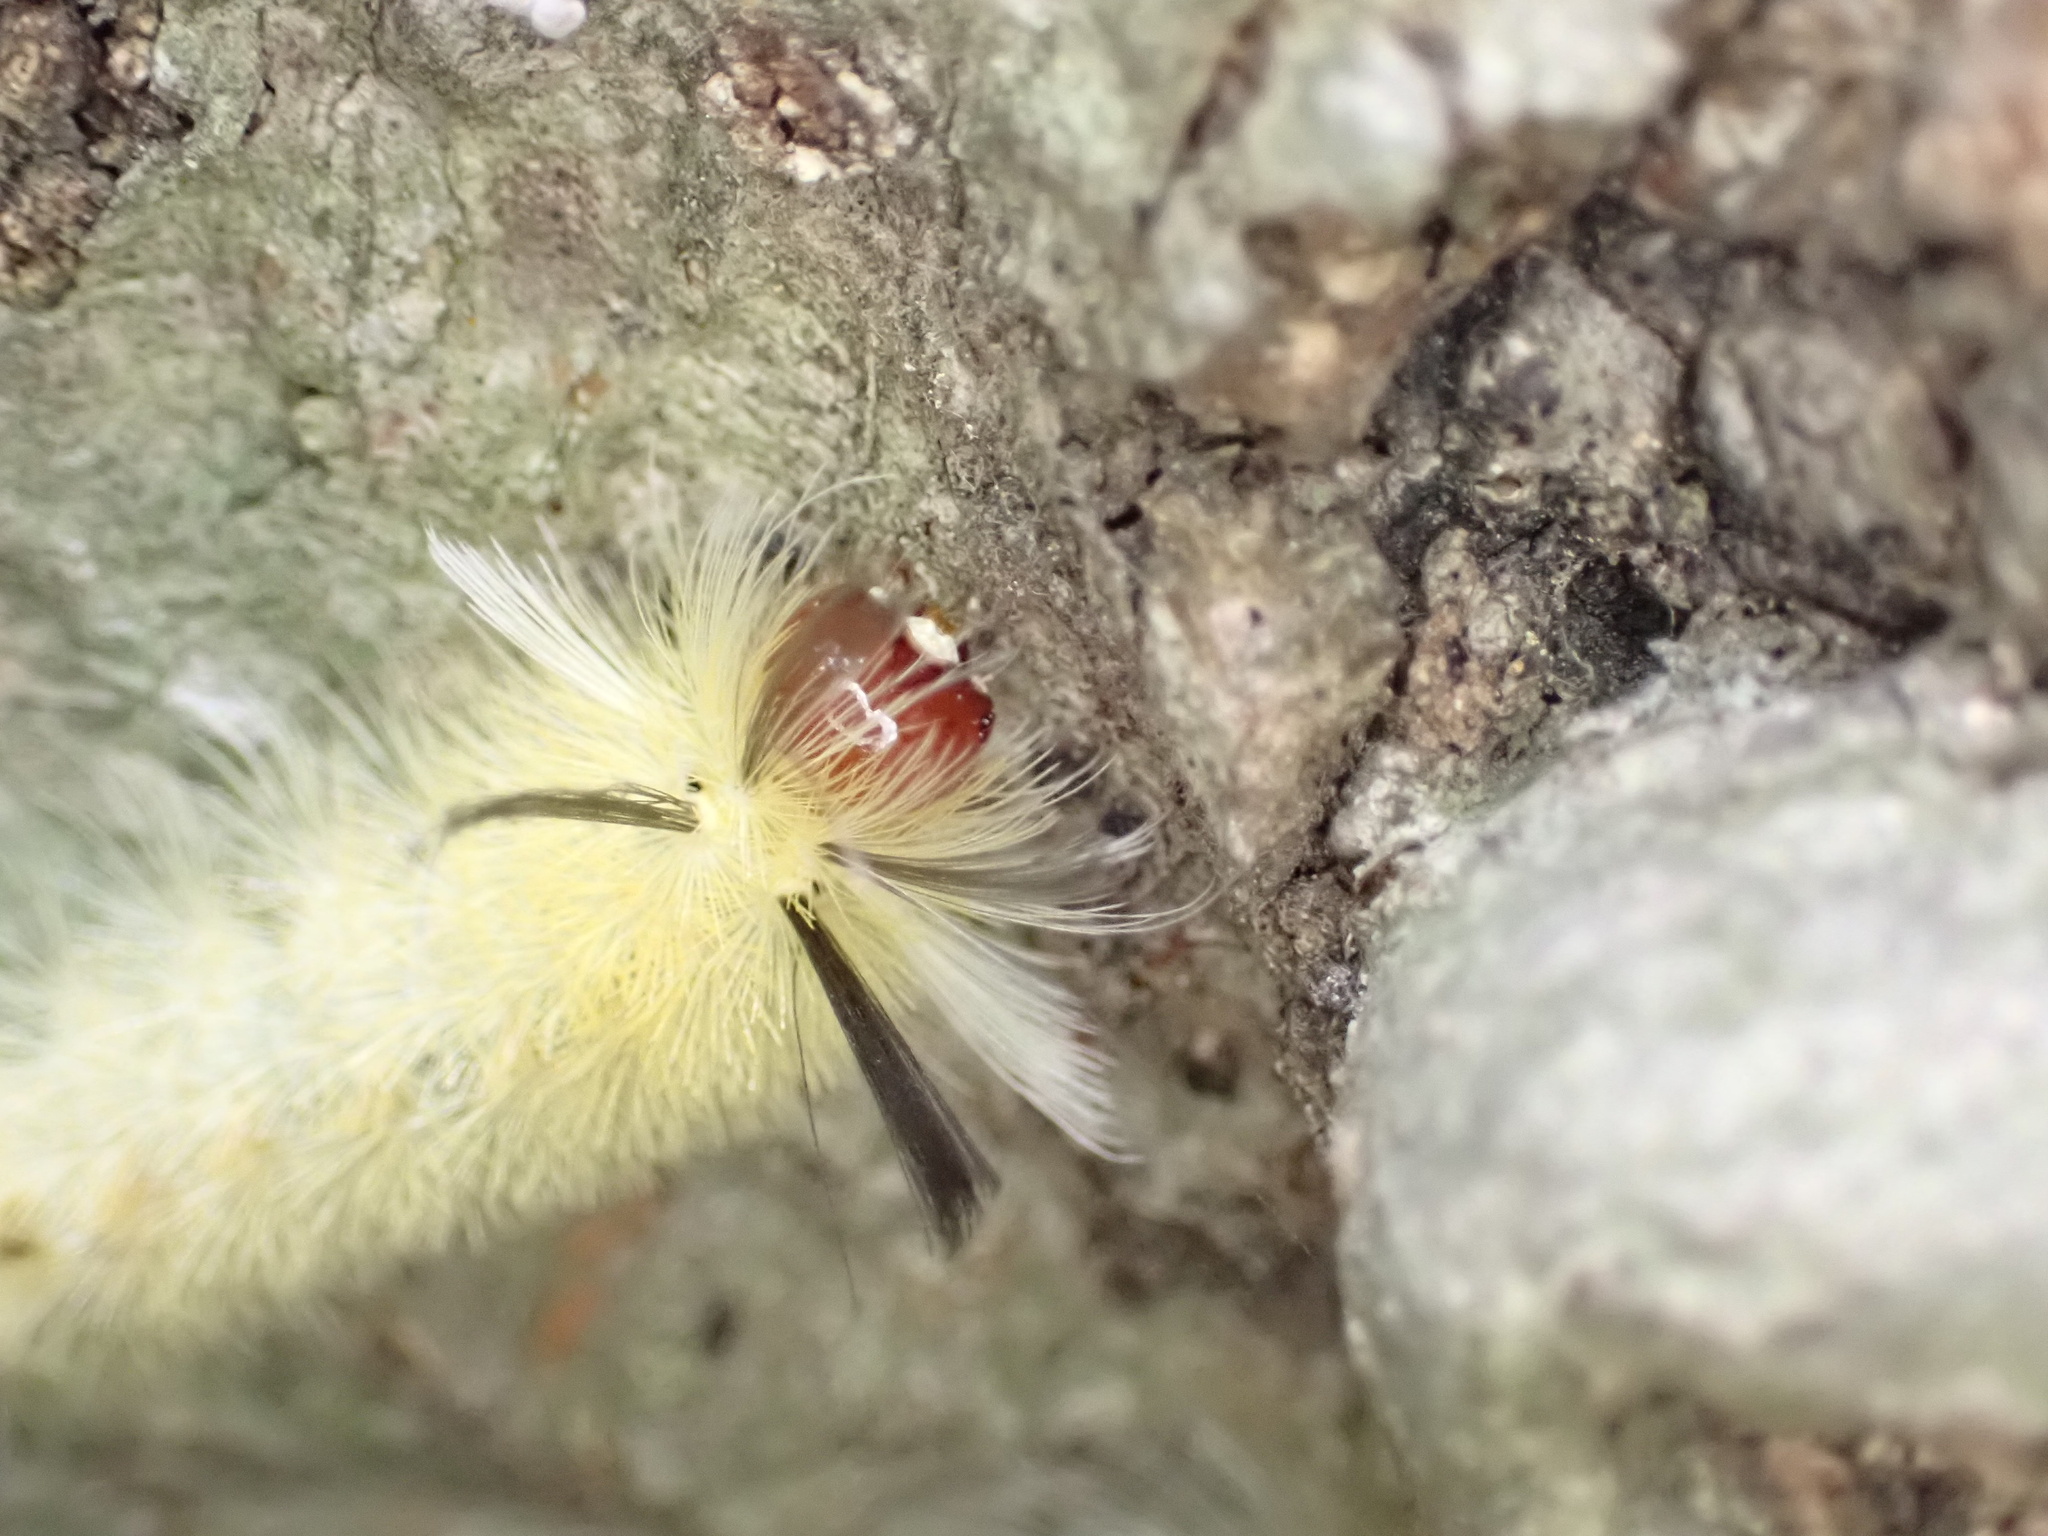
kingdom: Animalia
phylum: Arthropoda
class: Insecta
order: Lepidoptera
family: Erebidae
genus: Halysidota
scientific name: Halysidota tessellaris
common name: Banded tussock moth
